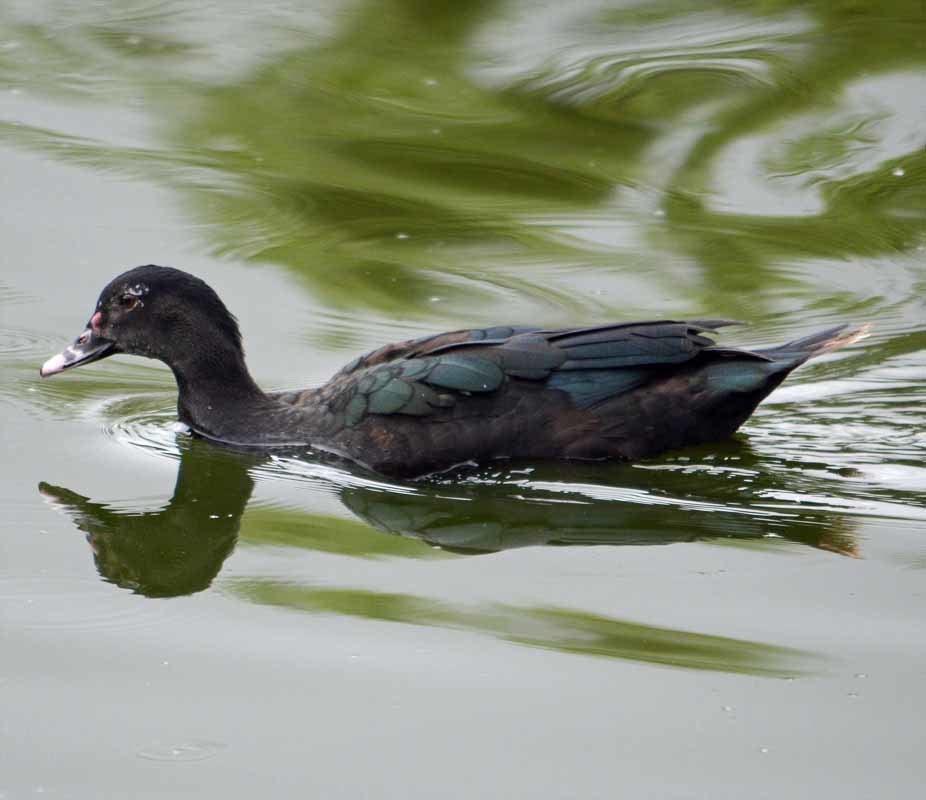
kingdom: Animalia
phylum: Chordata
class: Aves
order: Anseriformes
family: Anatidae
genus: Cairina
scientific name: Cairina moschata
